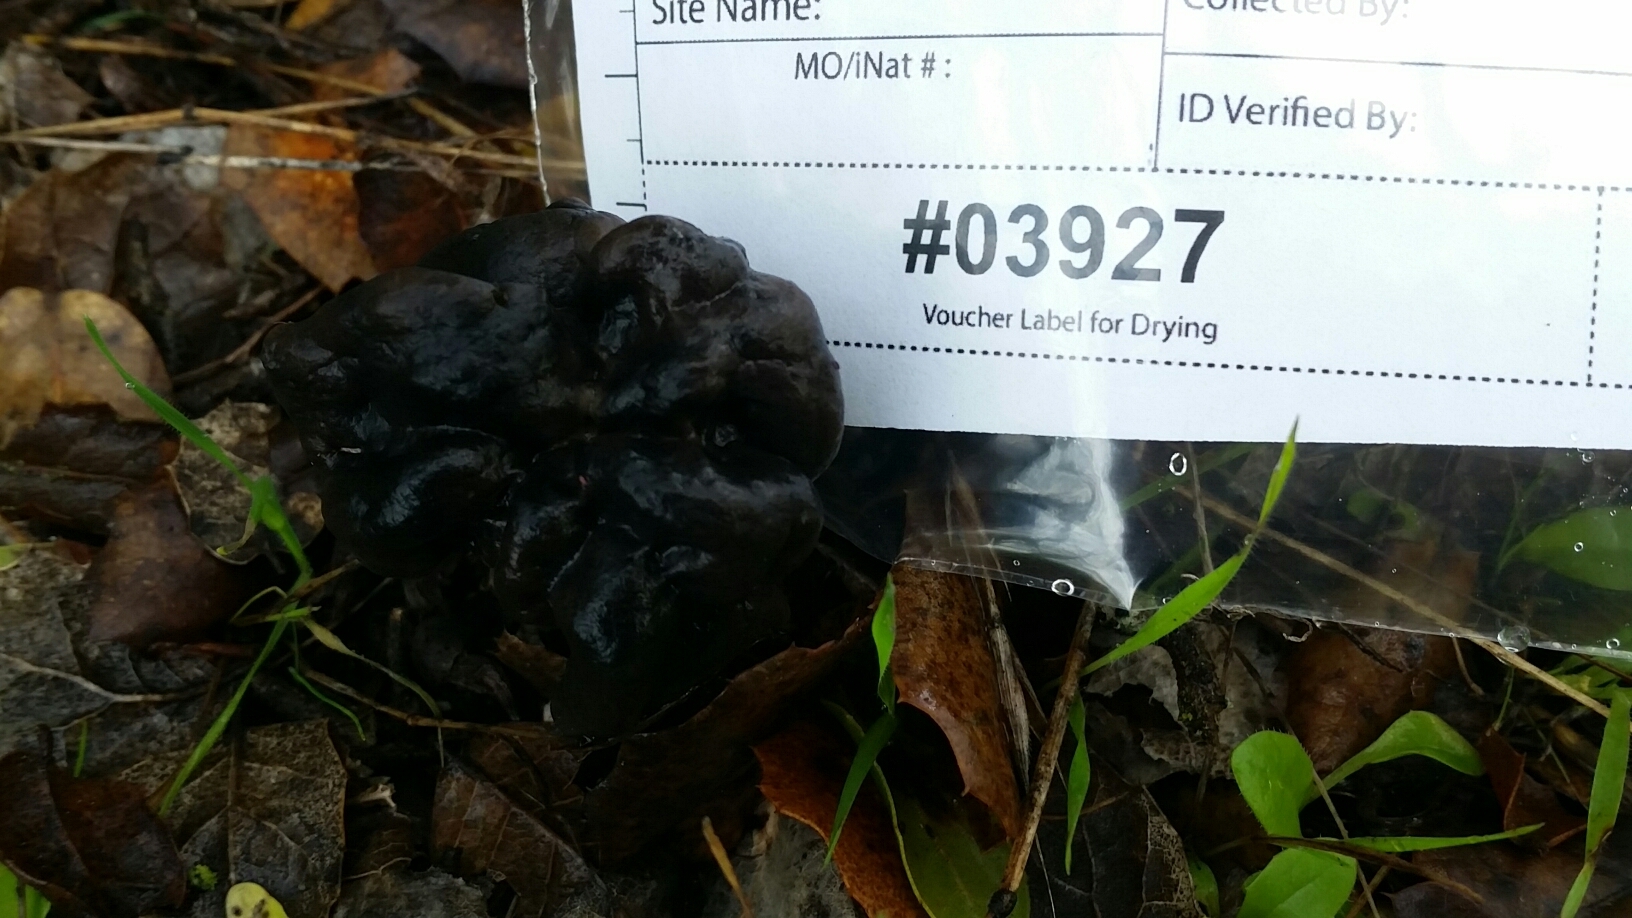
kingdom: Fungi
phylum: Ascomycota
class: Pezizomycetes
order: Pezizales
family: Helvellaceae
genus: Helvella
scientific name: Helvella dryophila
